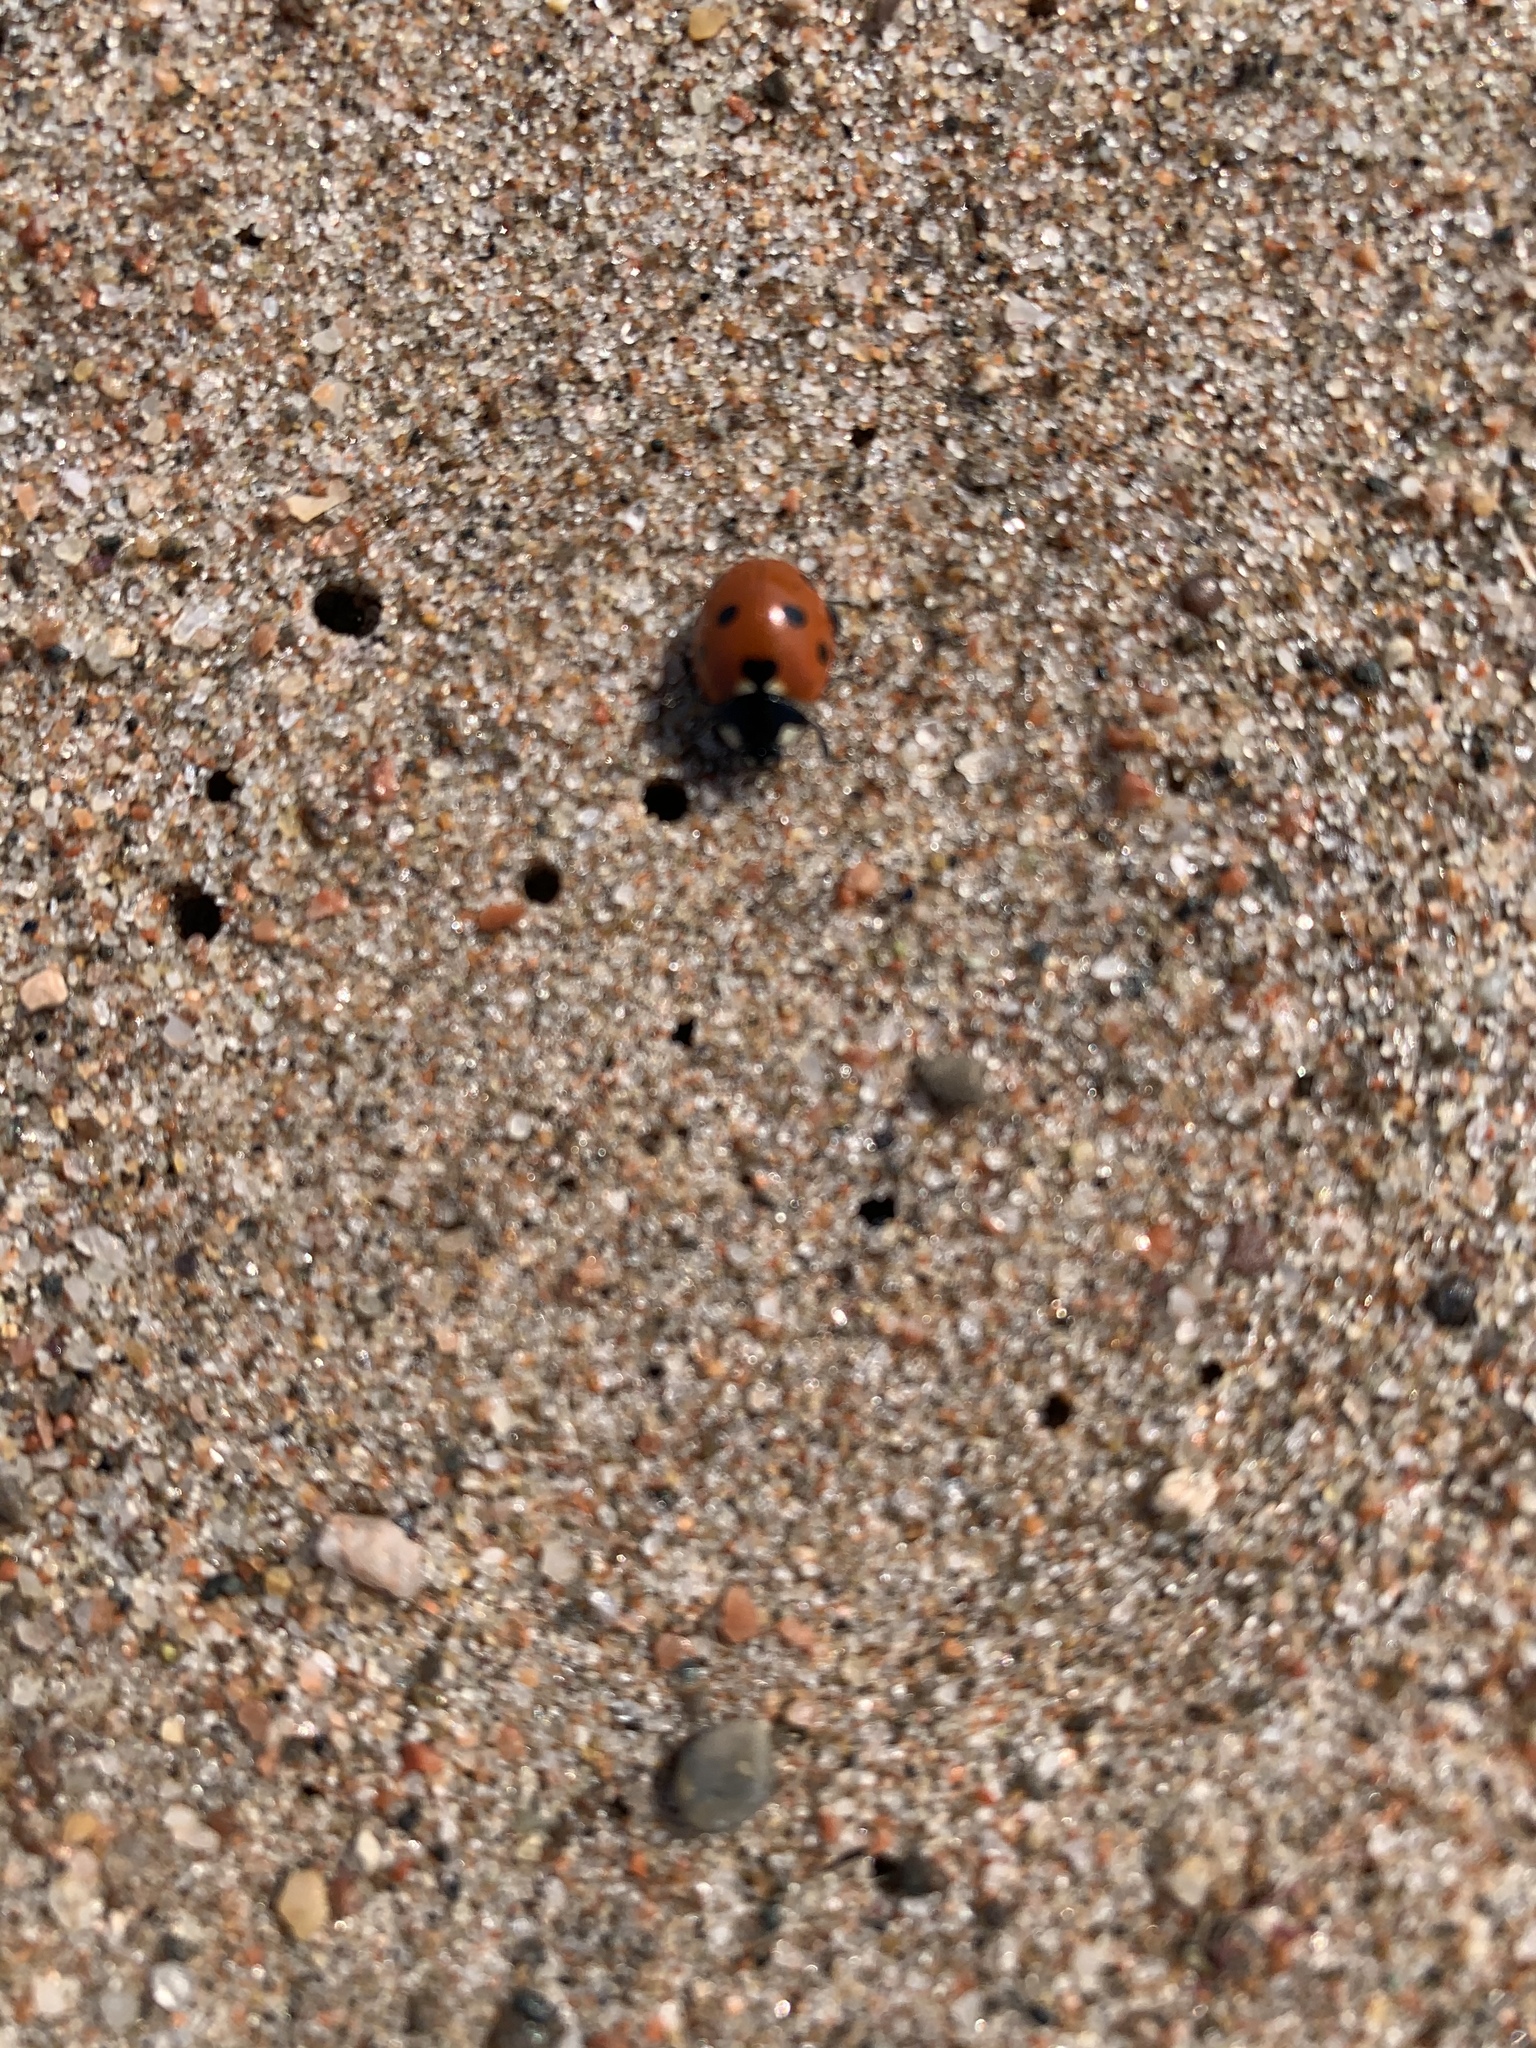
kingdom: Animalia
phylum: Arthropoda
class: Insecta
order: Coleoptera
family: Coccinellidae
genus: Coccinella
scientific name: Coccinella septempunctata
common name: Sevenspotted lady beetle
